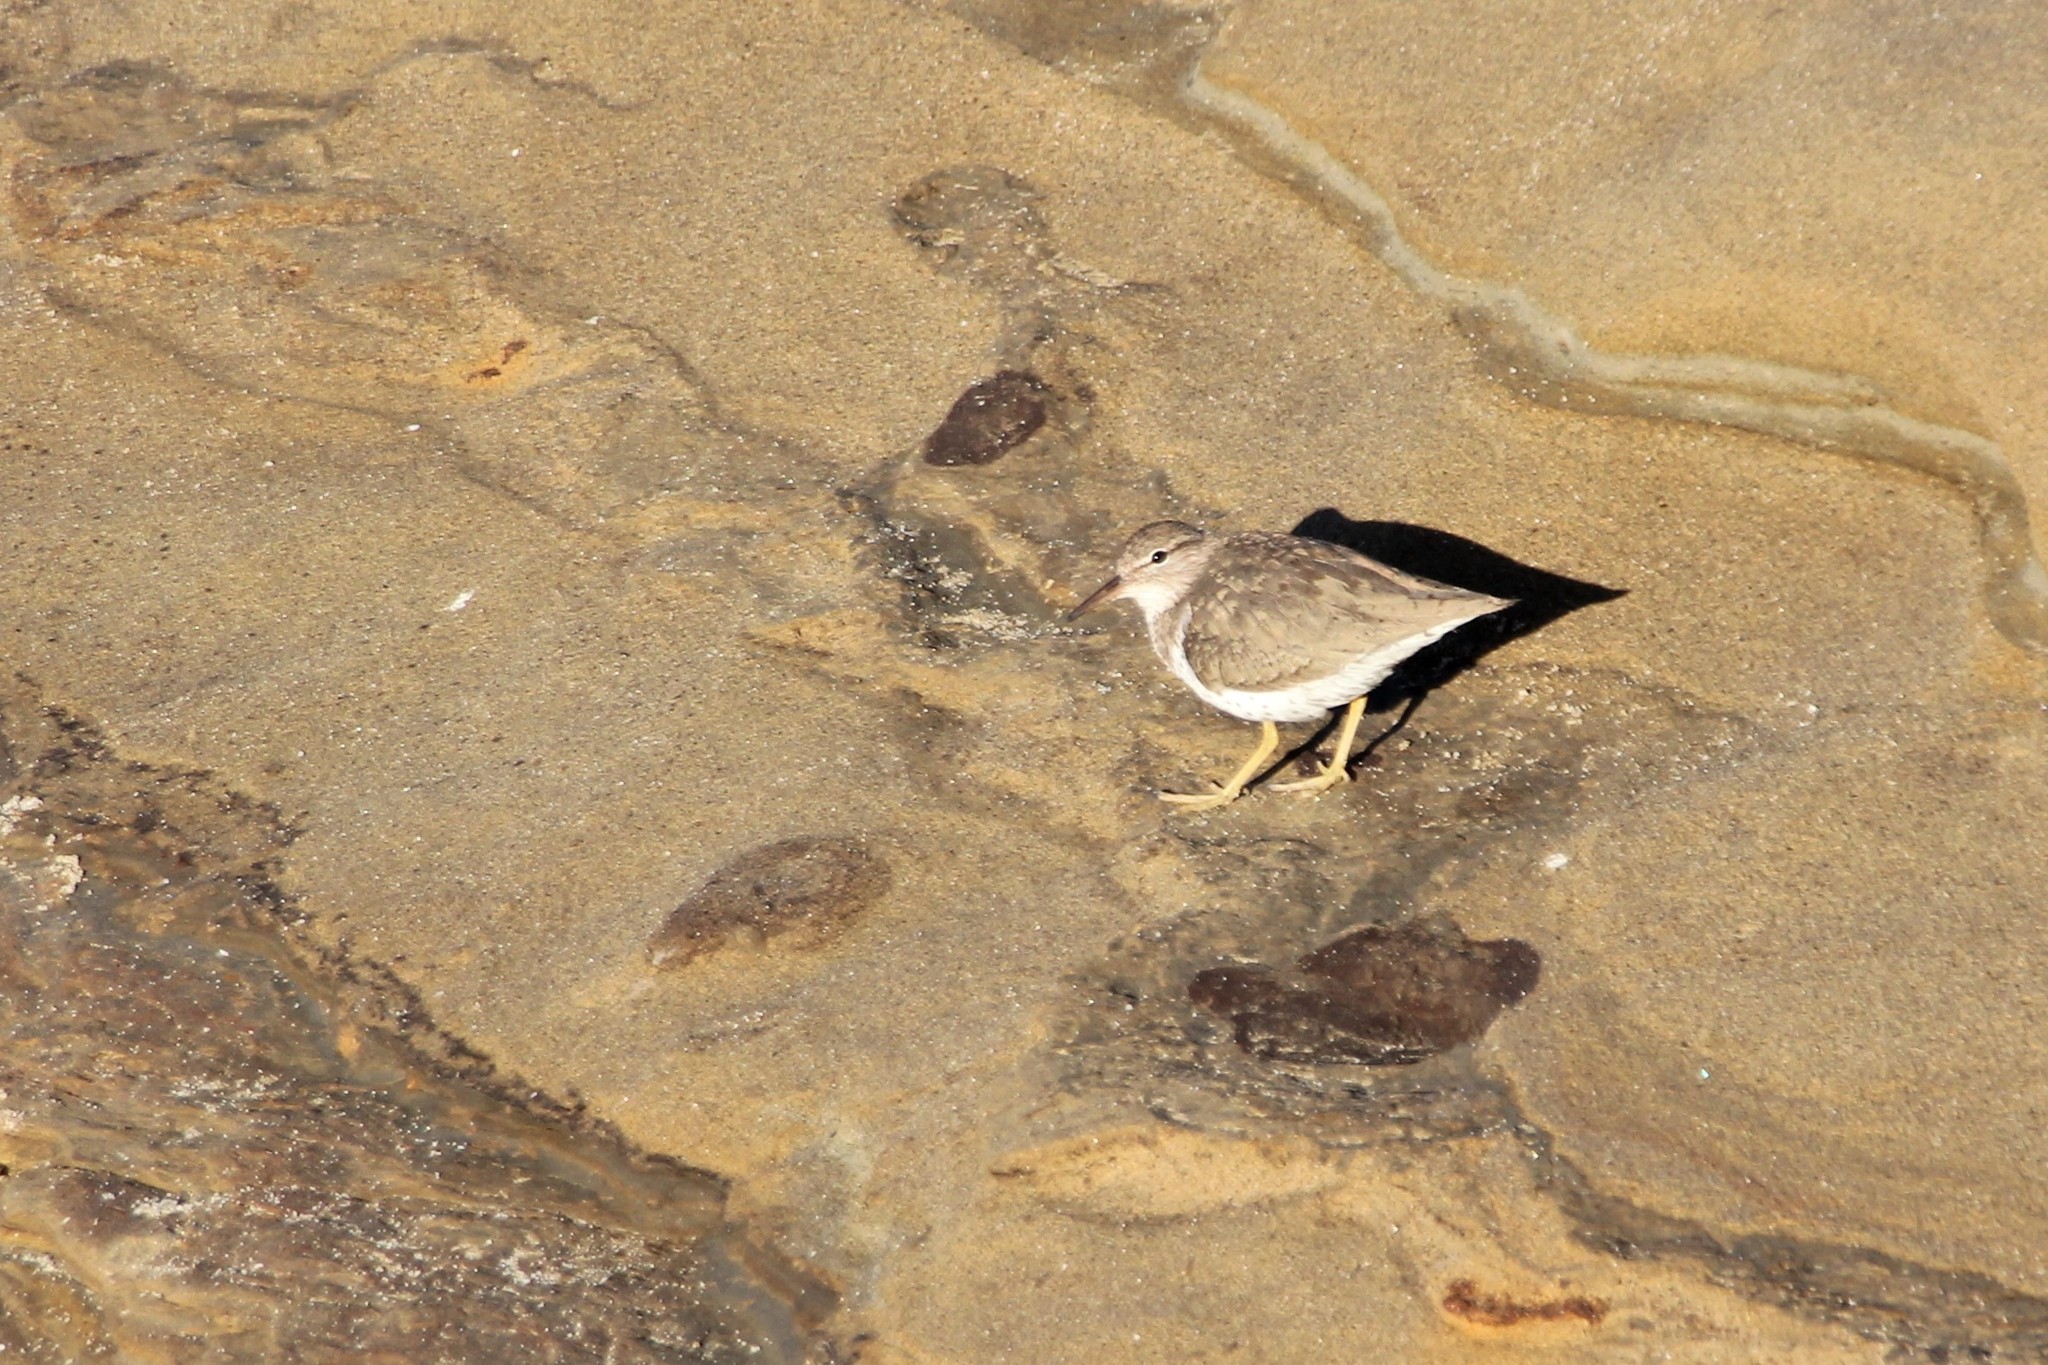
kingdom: Animalia
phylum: Chordata
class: Aves
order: Charadriiformes
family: Scolopacidae
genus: Actitis
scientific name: Actitis macularius
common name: Spotted sandpiper
